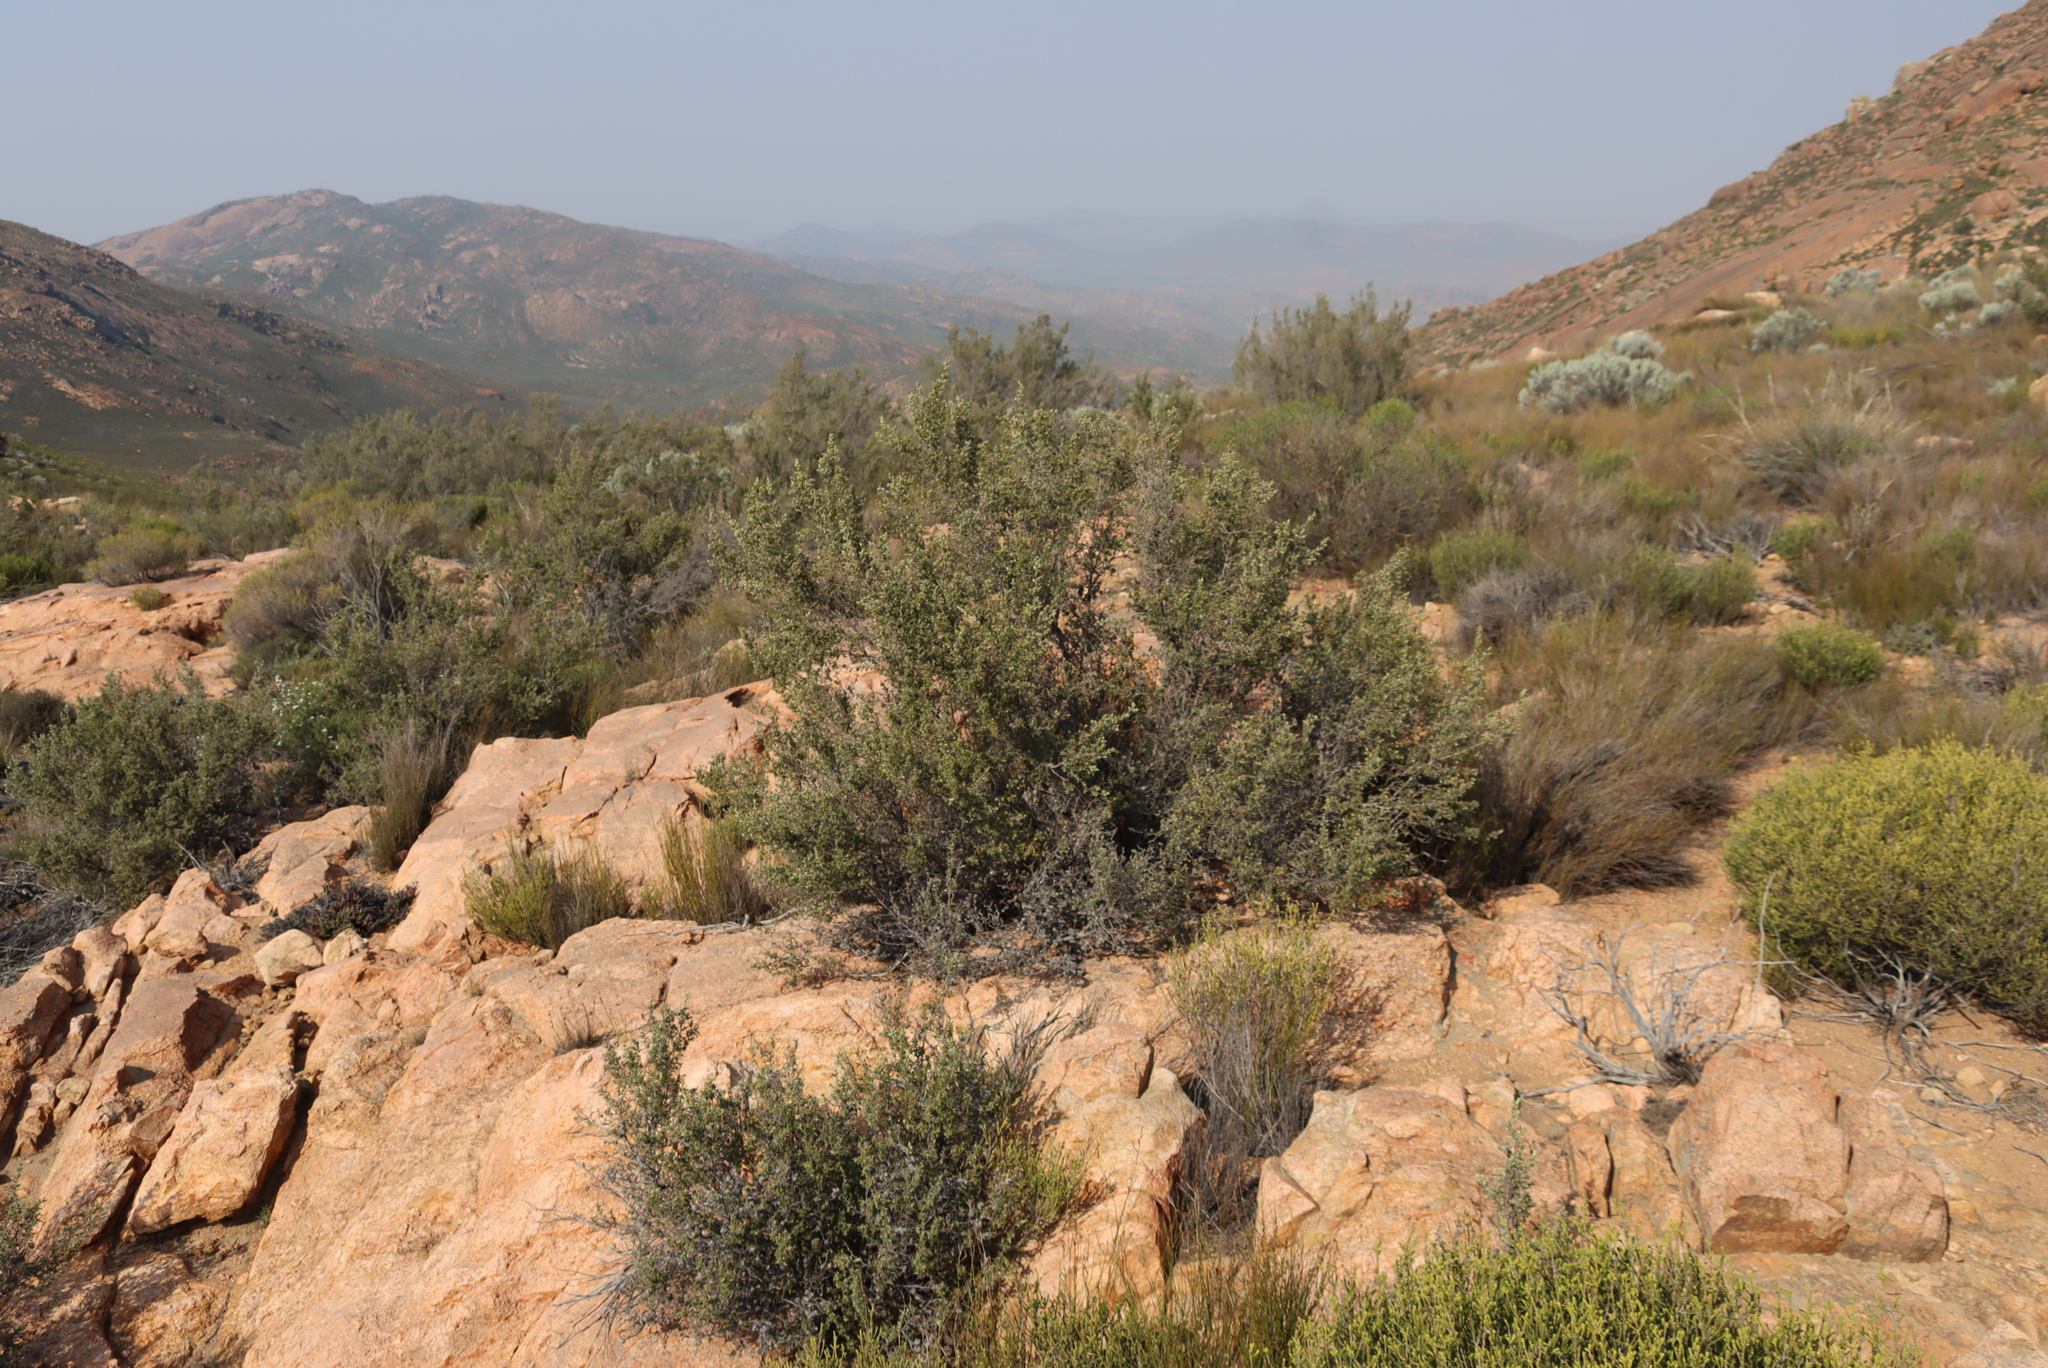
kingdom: Plantae
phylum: Tracheophyta
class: Magnoliopsida
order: Rosales
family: Rosaceae
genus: Cliffortia
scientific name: Cliffortia ruscifolia
